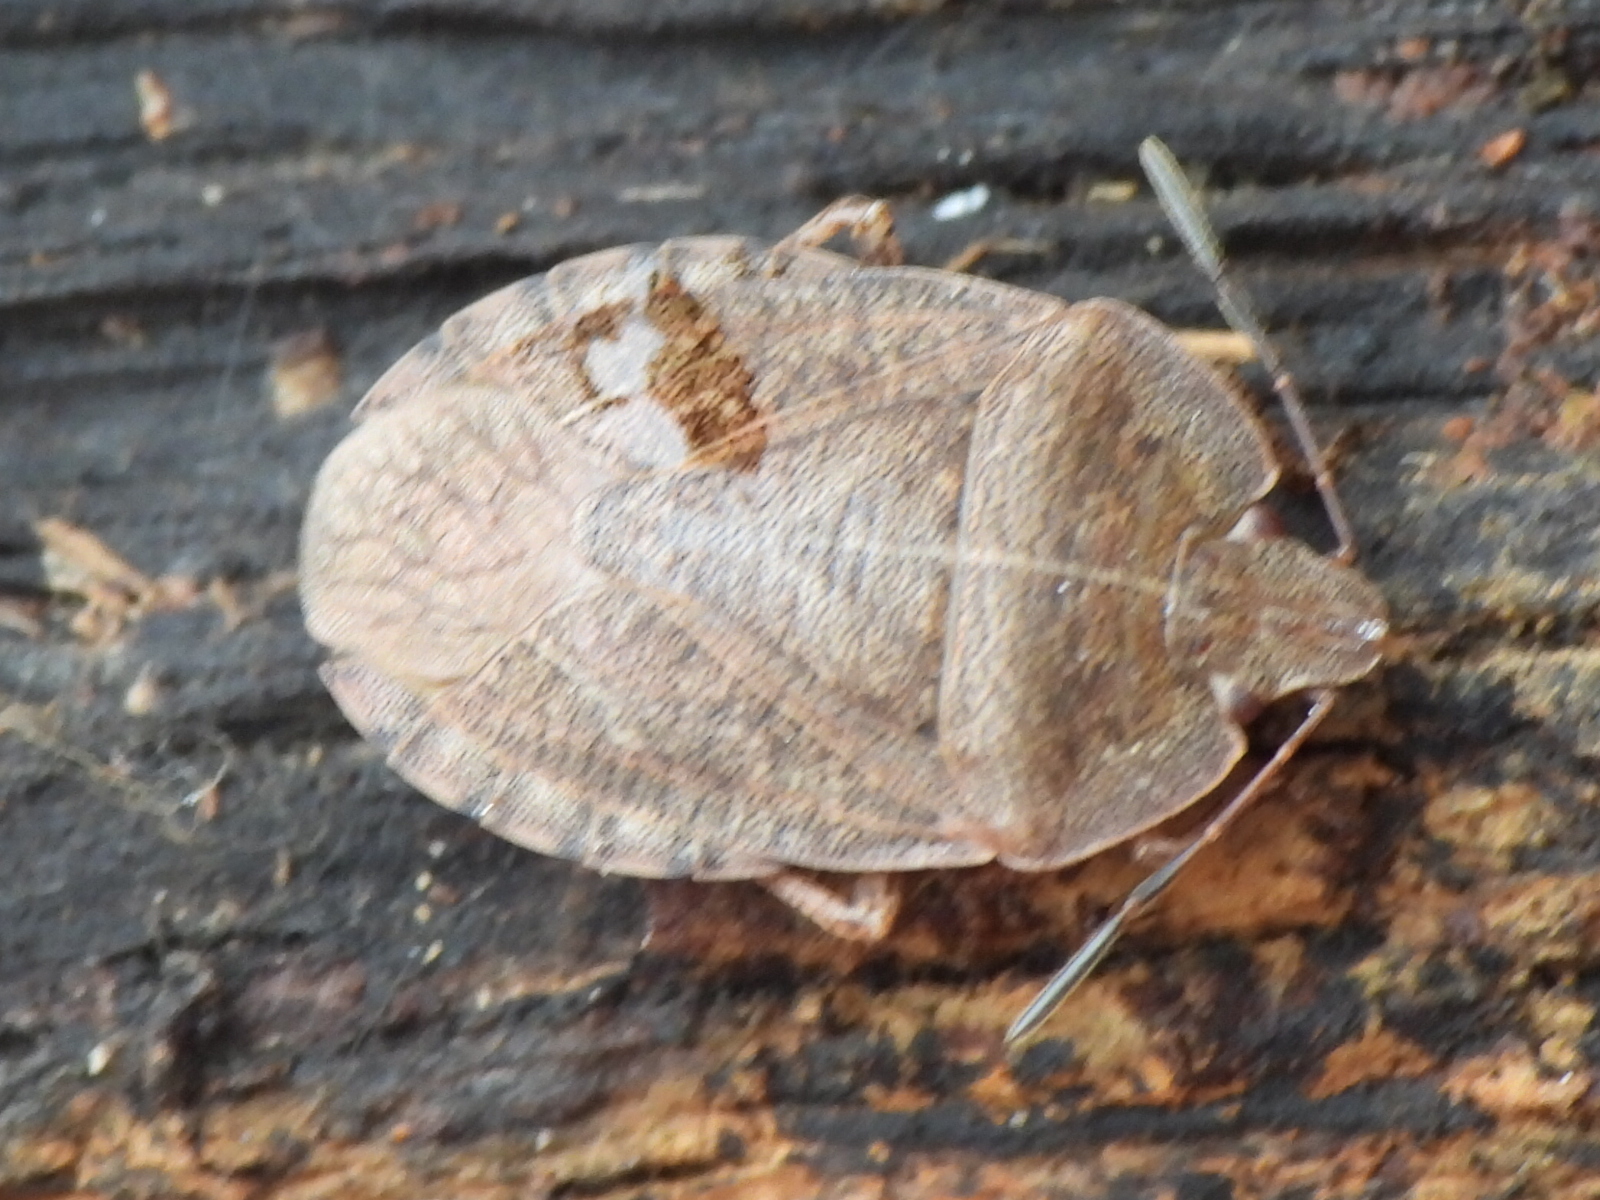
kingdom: Animalia
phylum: Arthropoda
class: Insecta
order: Hemiptera
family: Pentatomidae
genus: Menecles
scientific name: Menecles insertus
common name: Elf shoe stink bug
